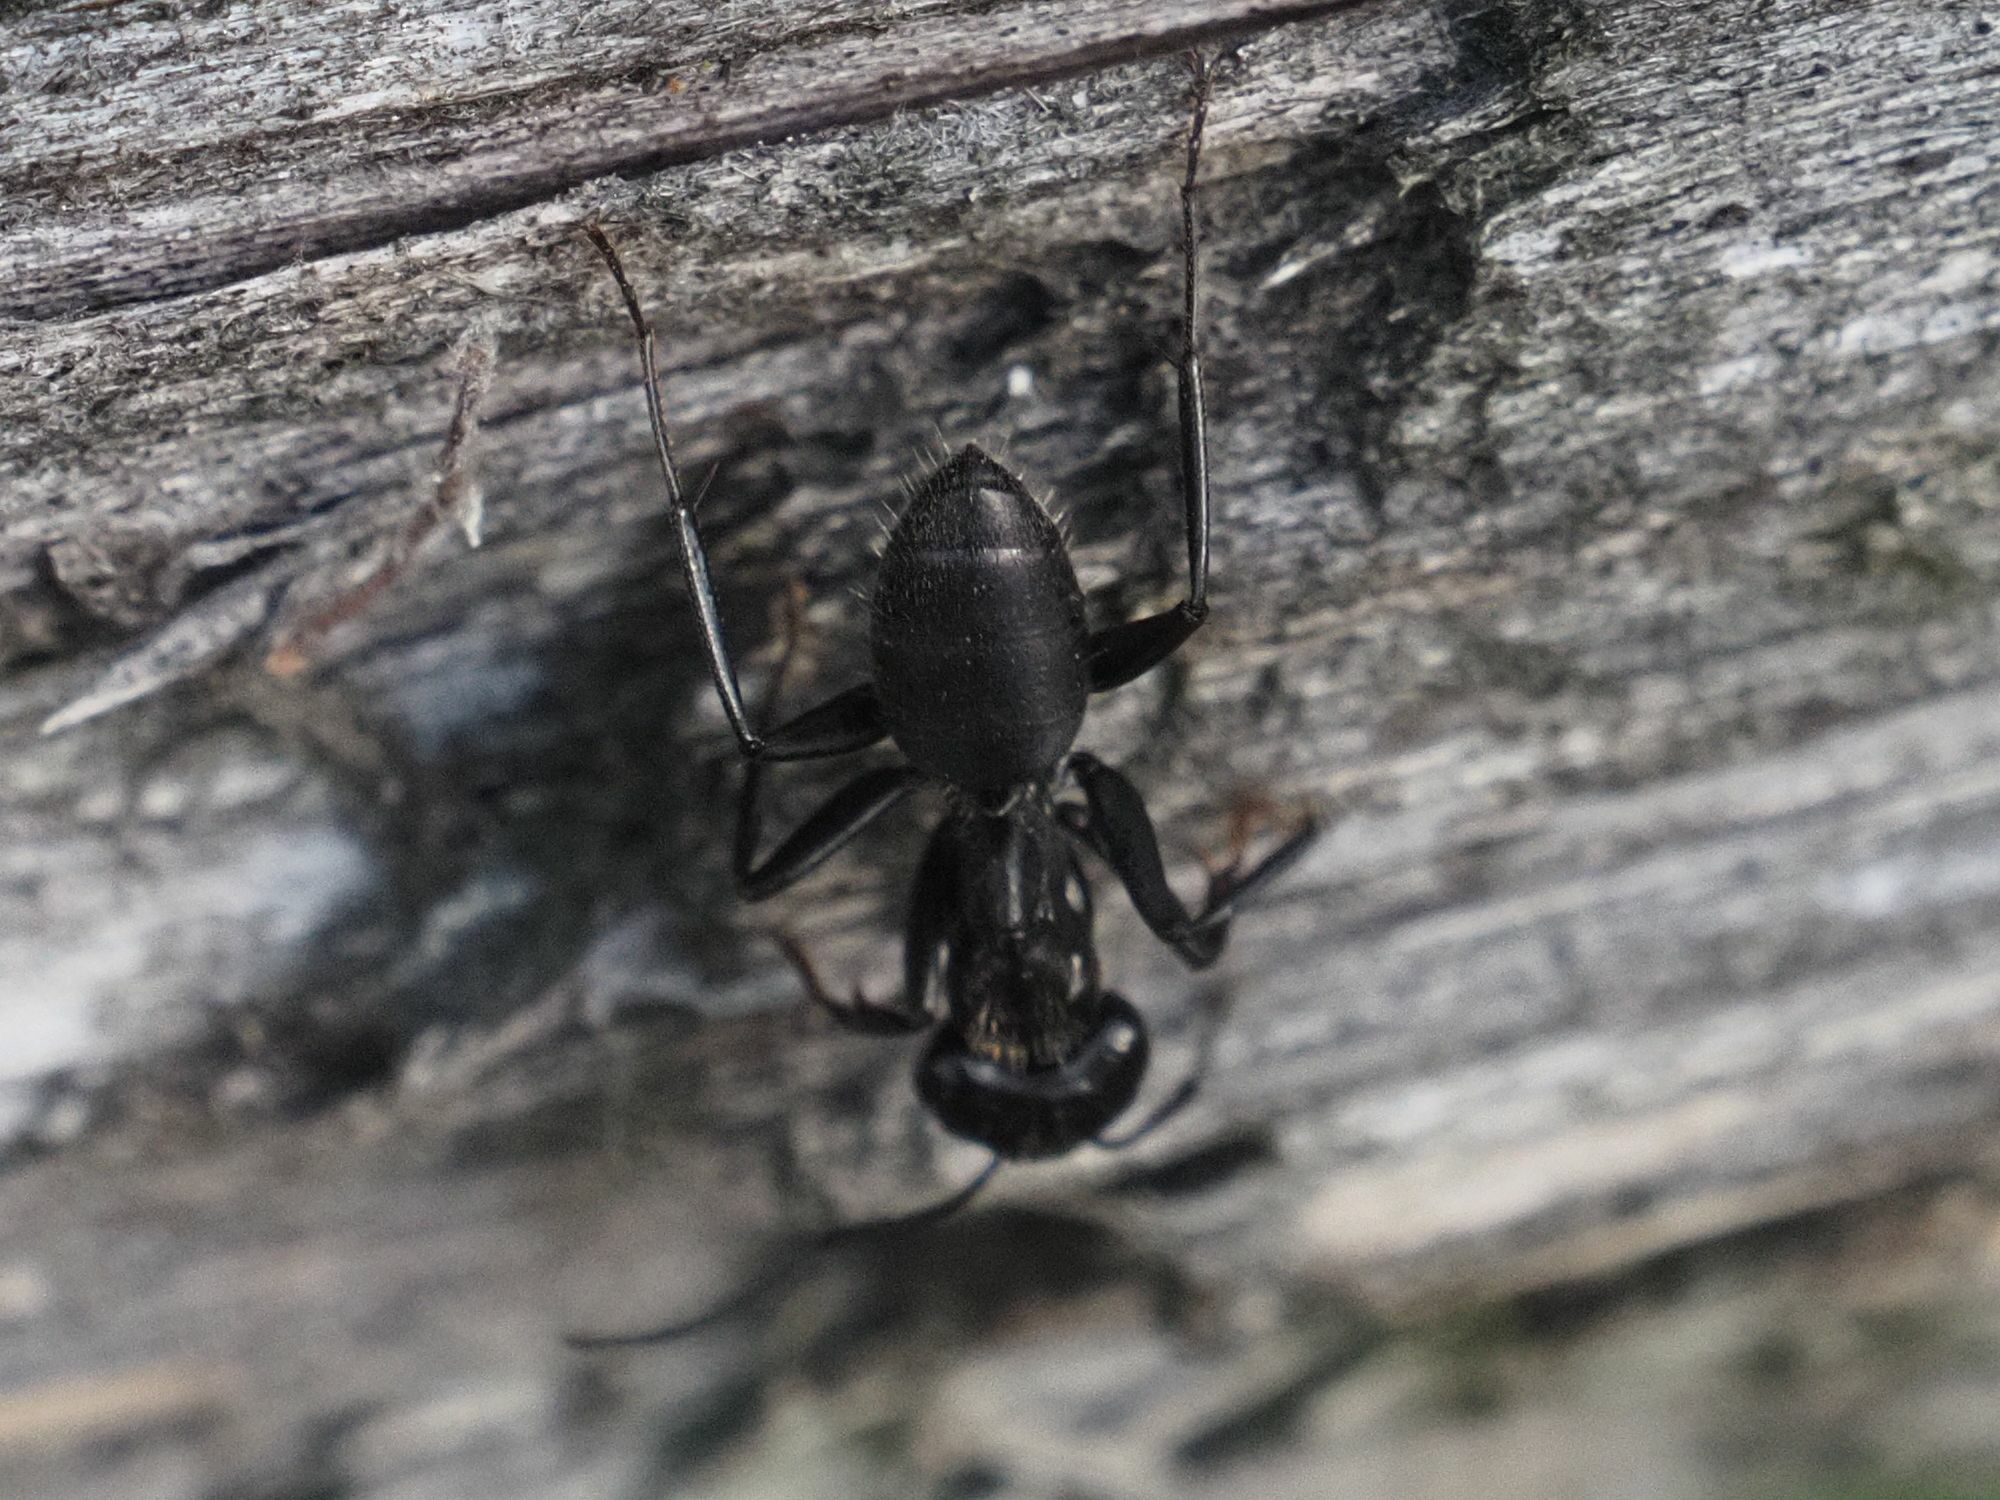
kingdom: Animalia
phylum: Arthropoda
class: Insecta
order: Hymenoptera
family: Formicidae
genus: Camponotus
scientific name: Camponotus vagus
